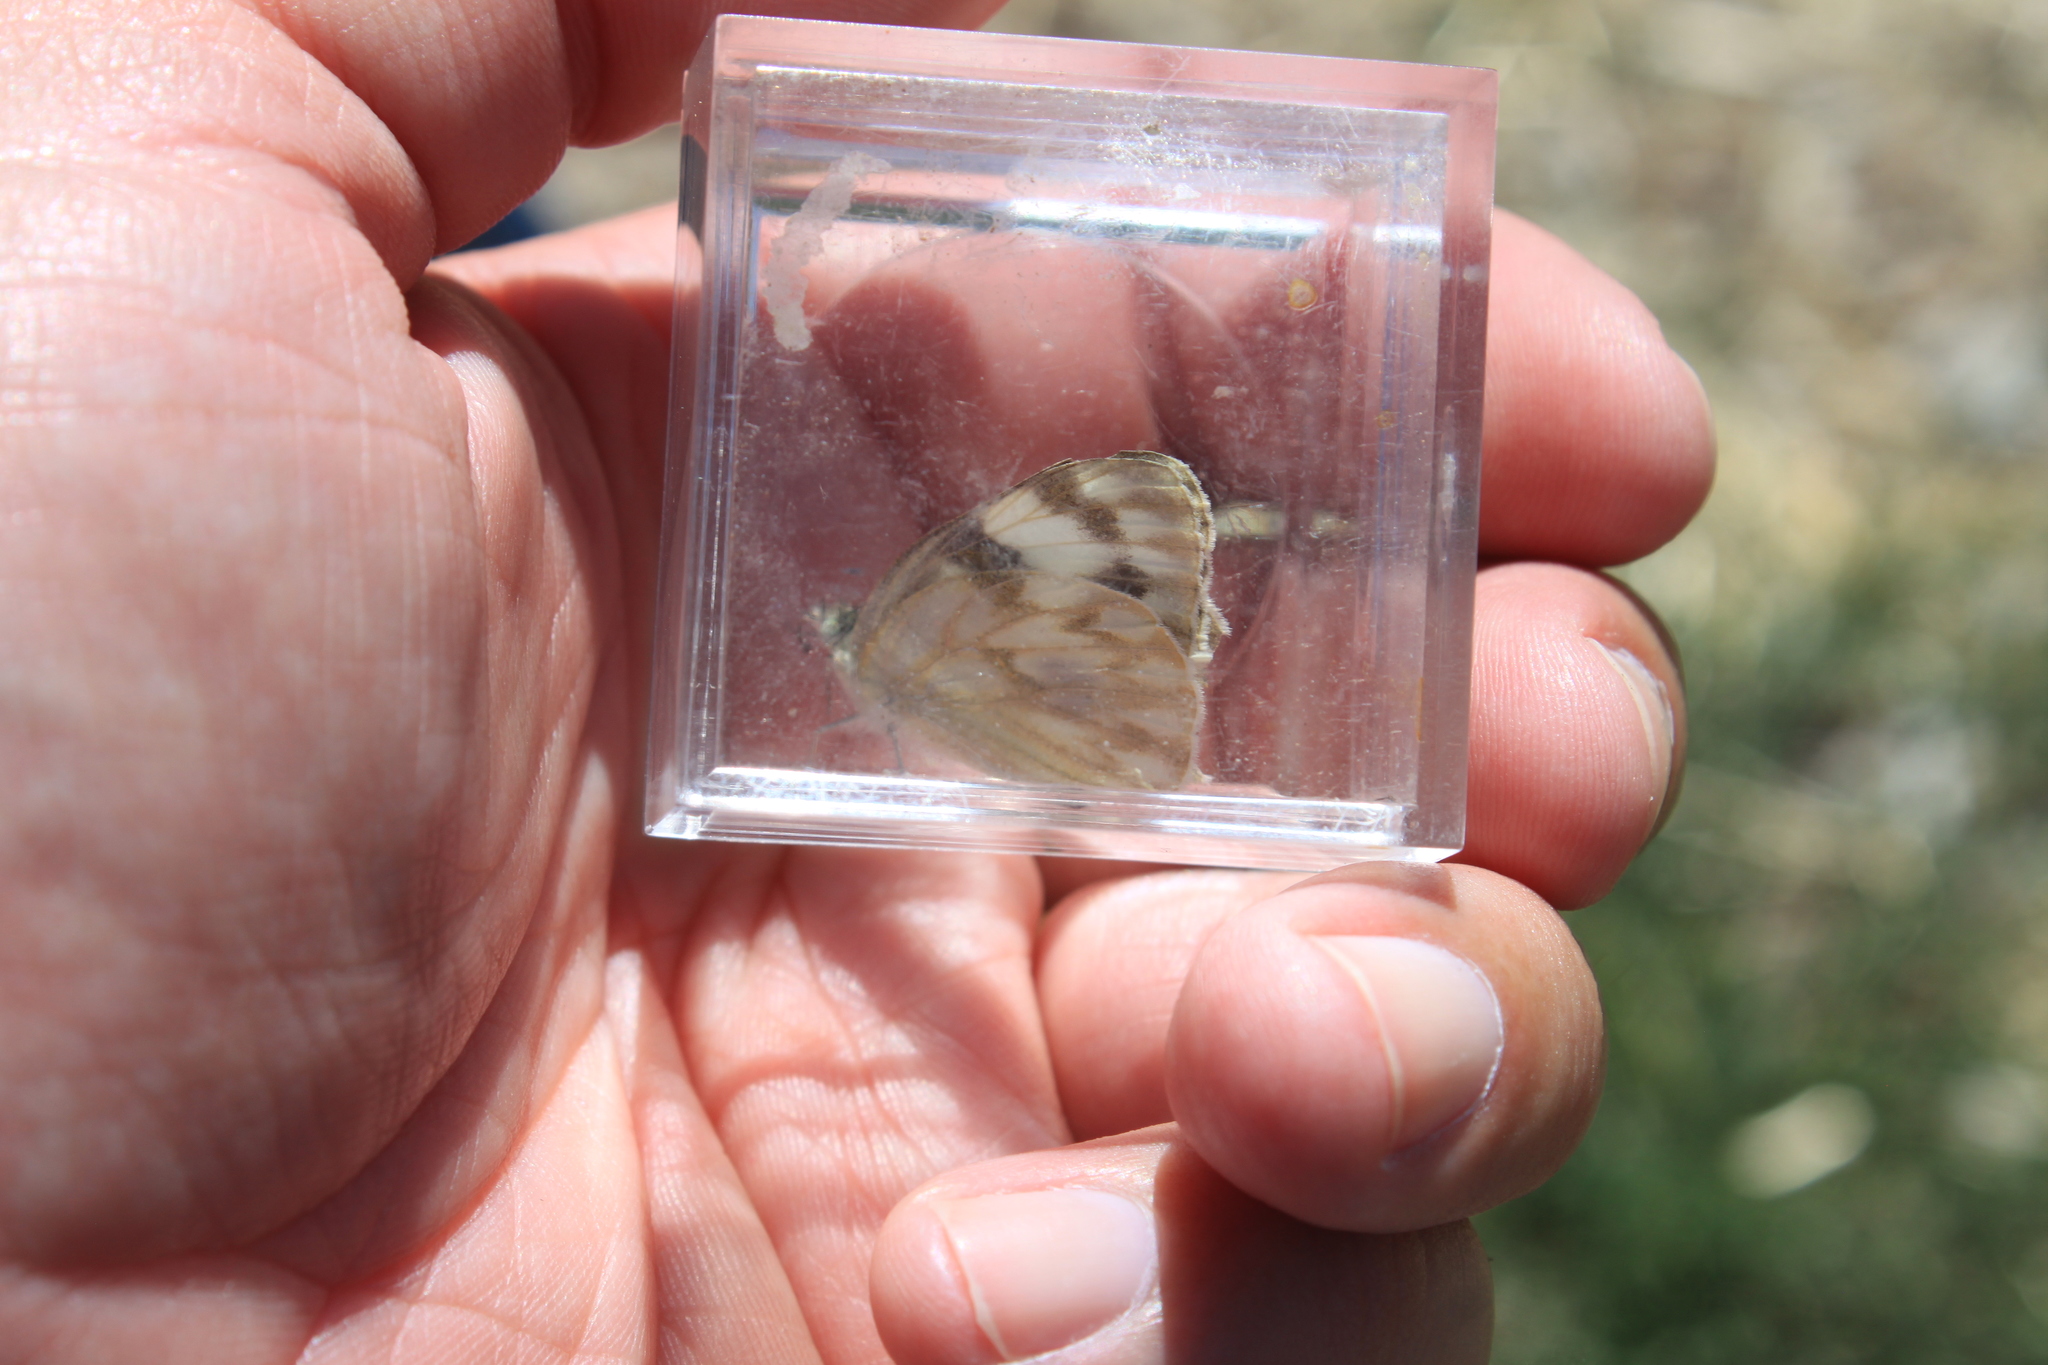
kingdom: Animalia
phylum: Arthropoda
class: Insecta
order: Lepidoptera
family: Pieridae
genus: Pontia
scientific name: Pontia protodice
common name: Checkered white
